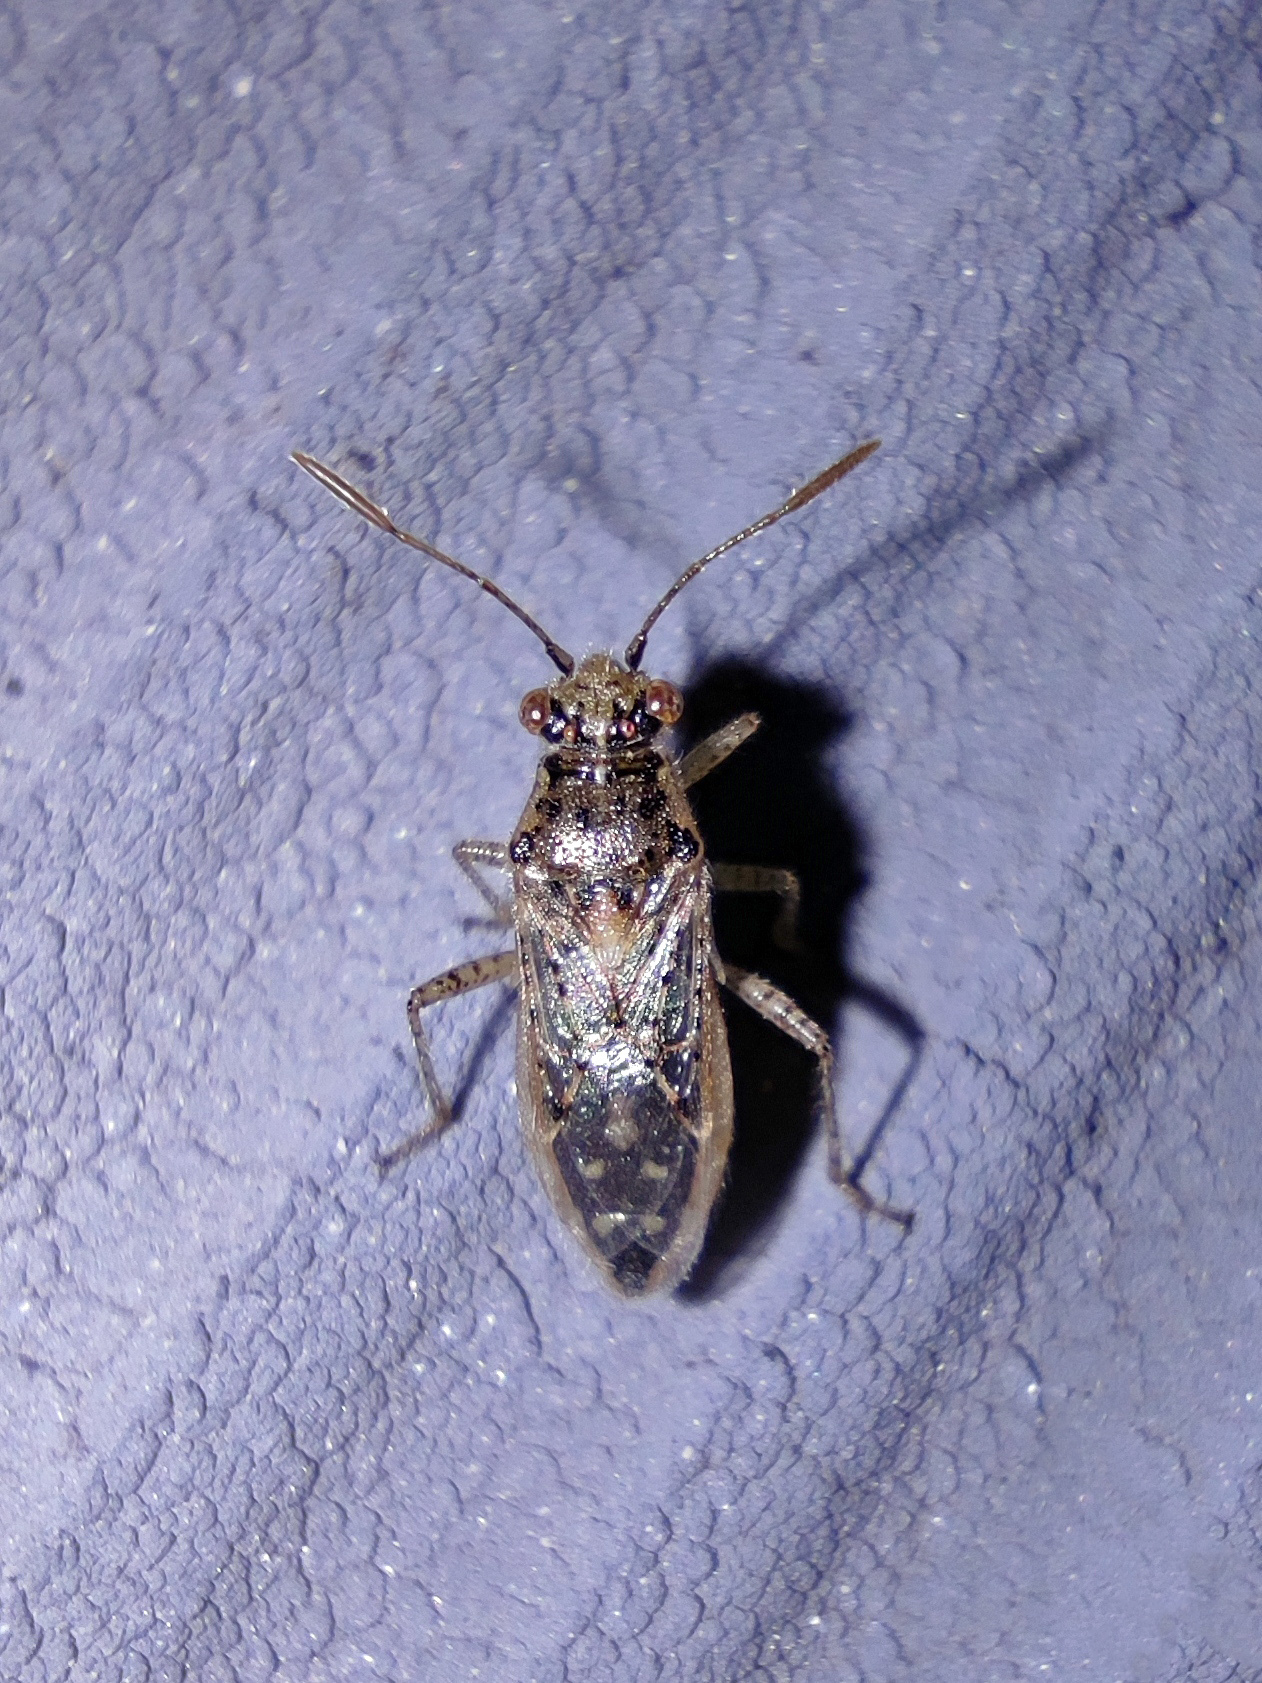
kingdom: Animalia
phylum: Arthropoda
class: Insecta
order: Hemiptera
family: Rhopalidae
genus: Brachycarenus
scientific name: Brachycarenus tigrinus
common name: Scentless plant bug
